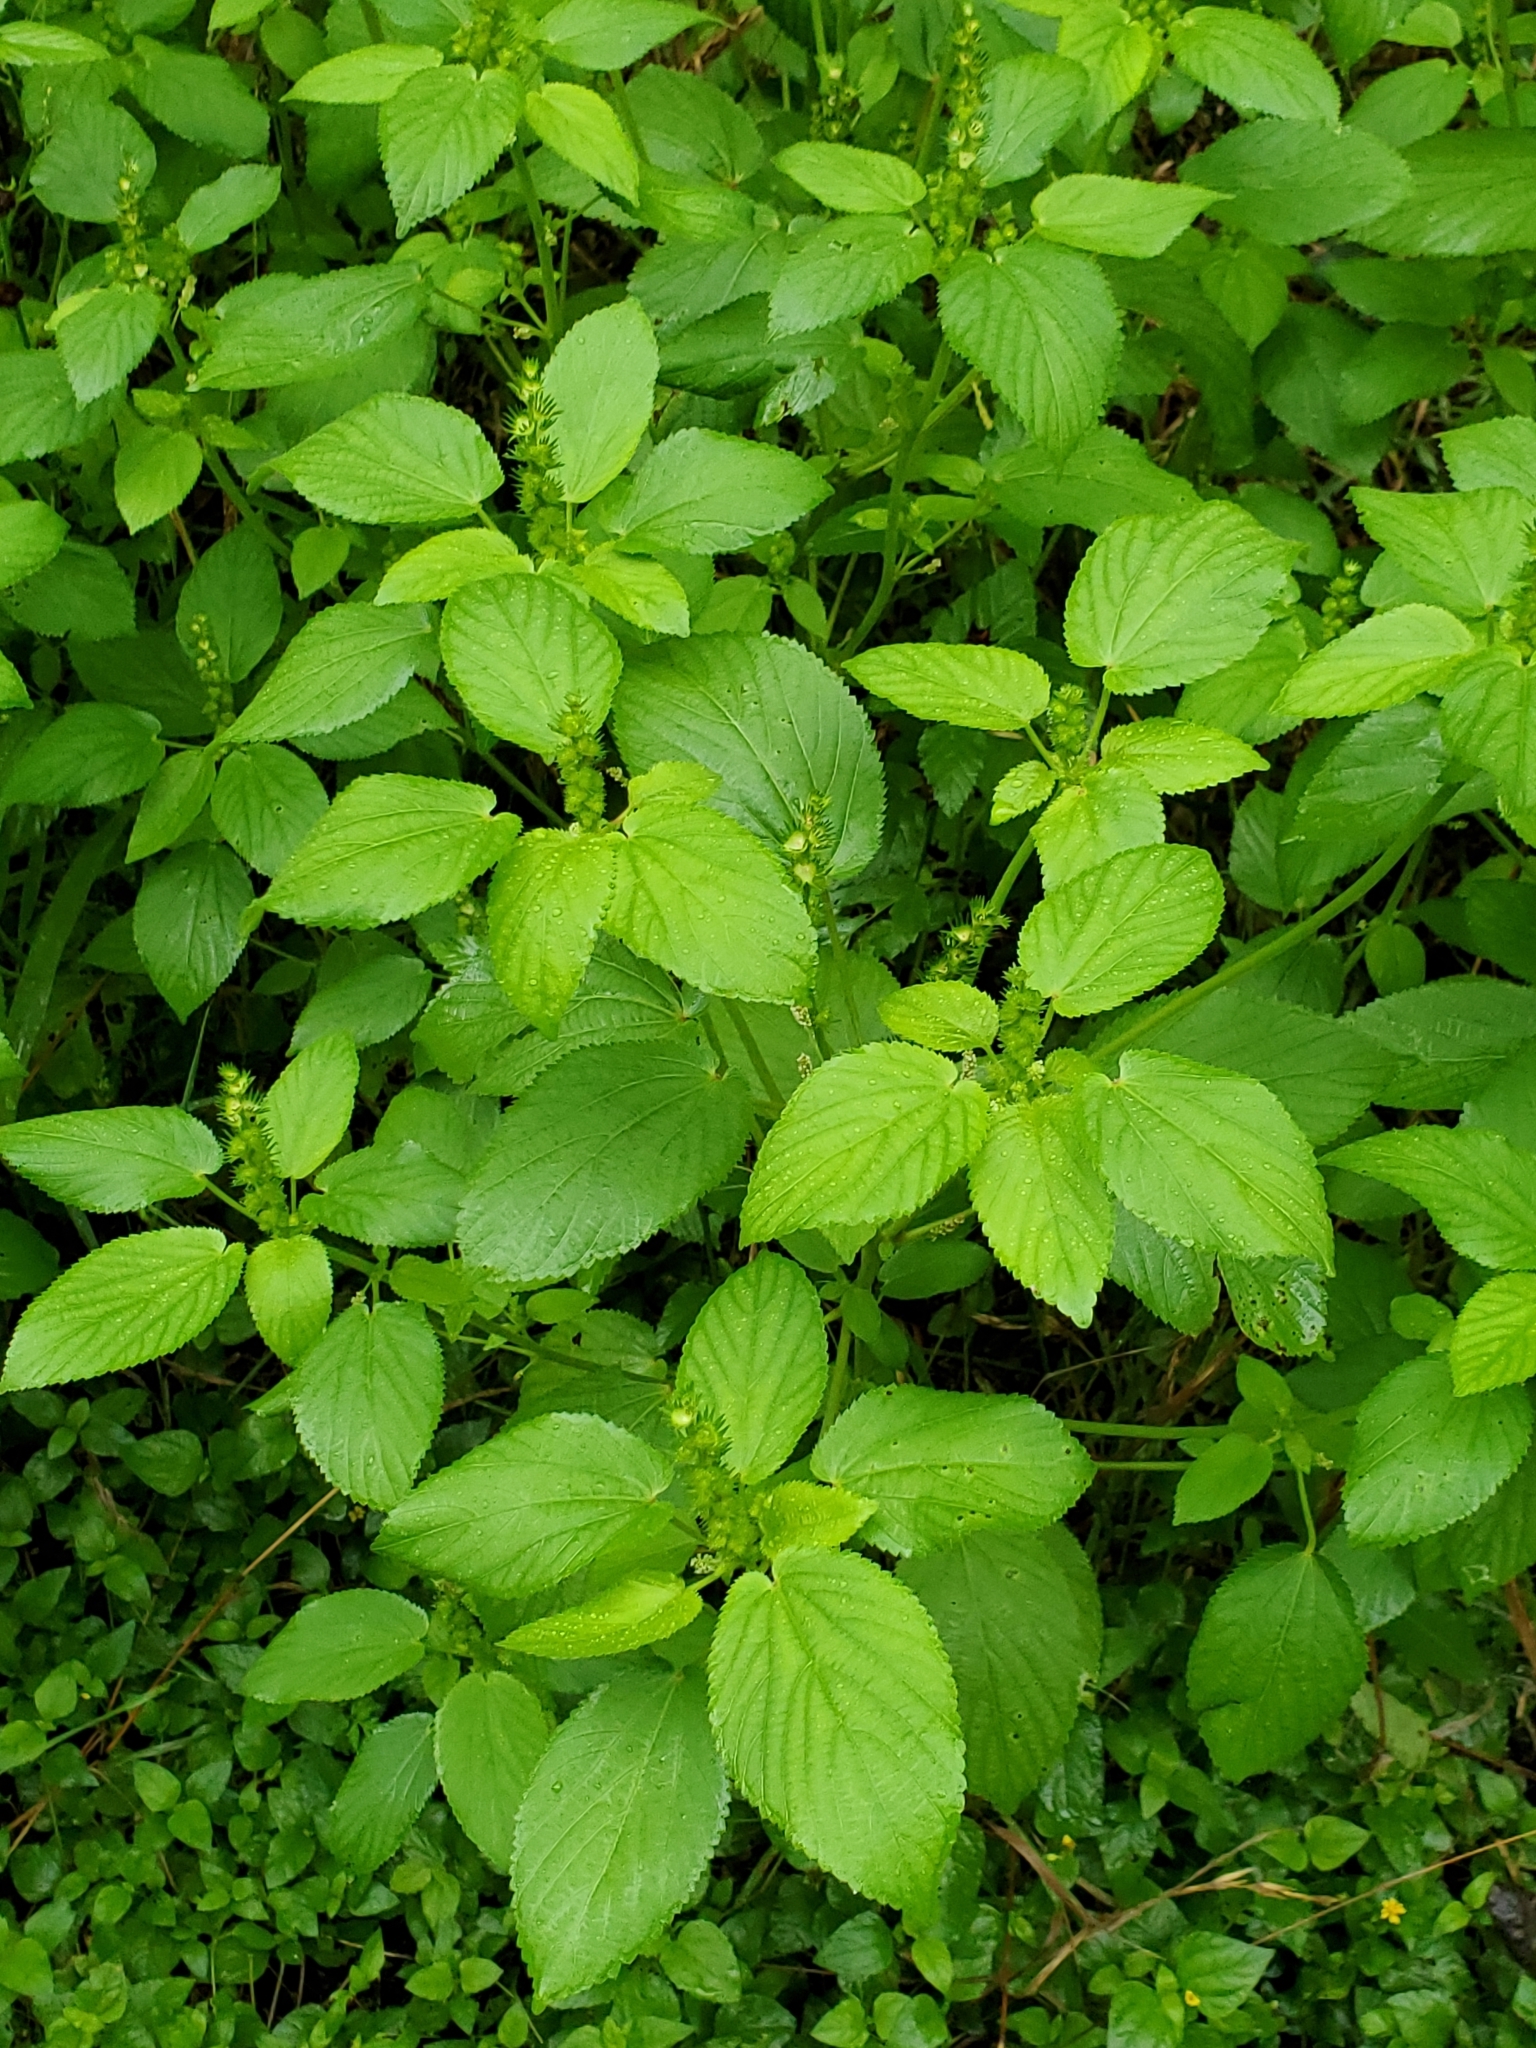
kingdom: Plantae
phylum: Tracheophyta
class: Magnoliopsida
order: Malpighiales
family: Euphorbiaceae
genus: Acalypha
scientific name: Acalypha ostryifolia
